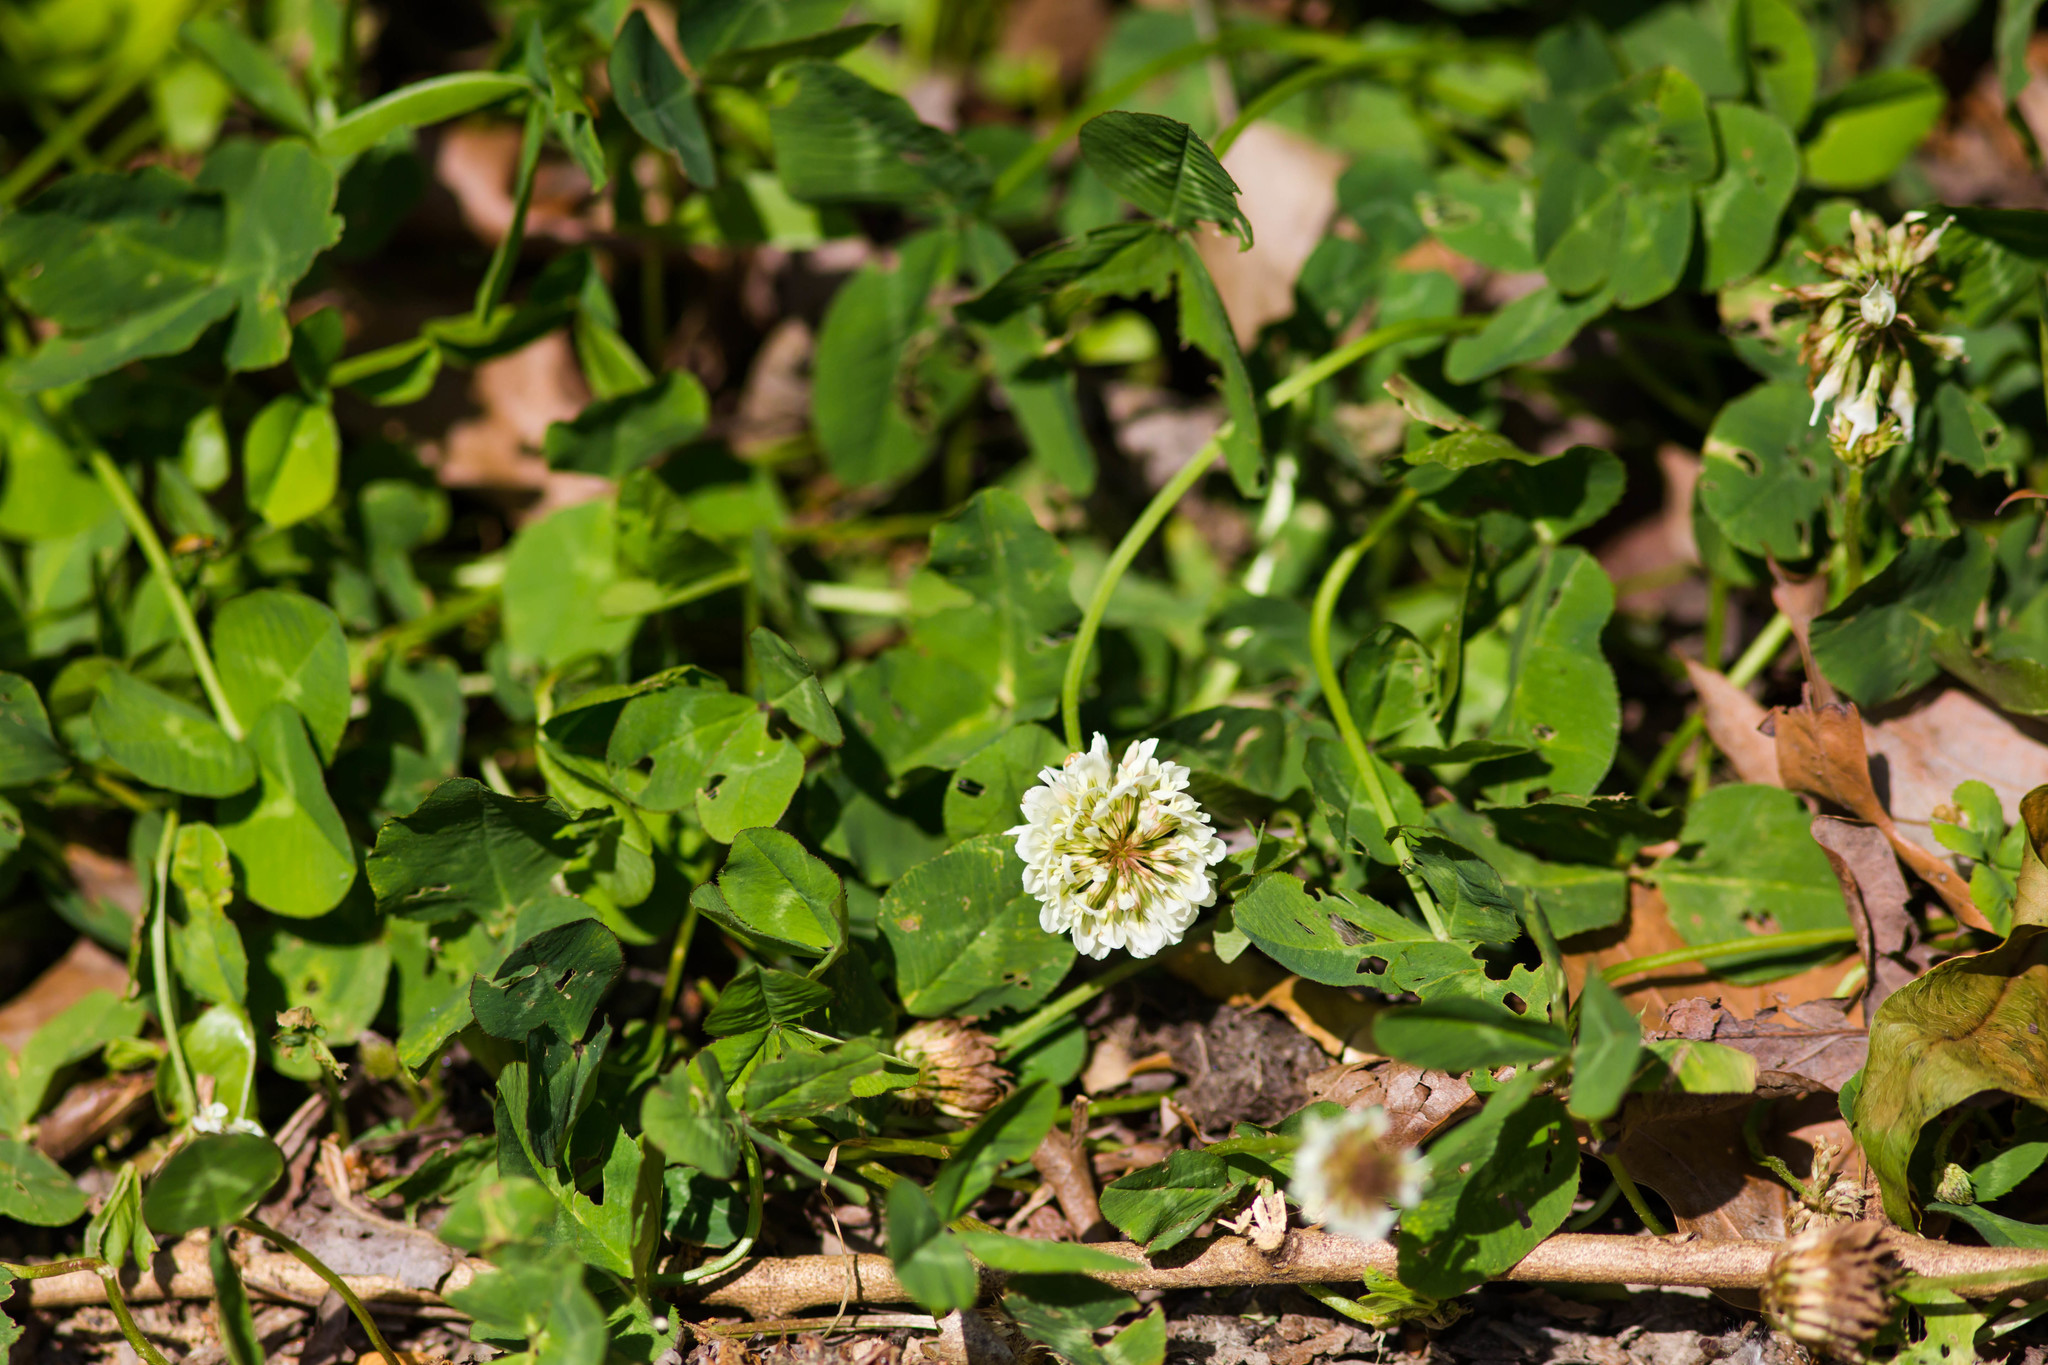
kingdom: Plantae
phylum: Tracheophyta
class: Magnoliopsida
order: Fabales
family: Fabaceae
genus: Trifolium
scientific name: Trifolium repens
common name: White clover
